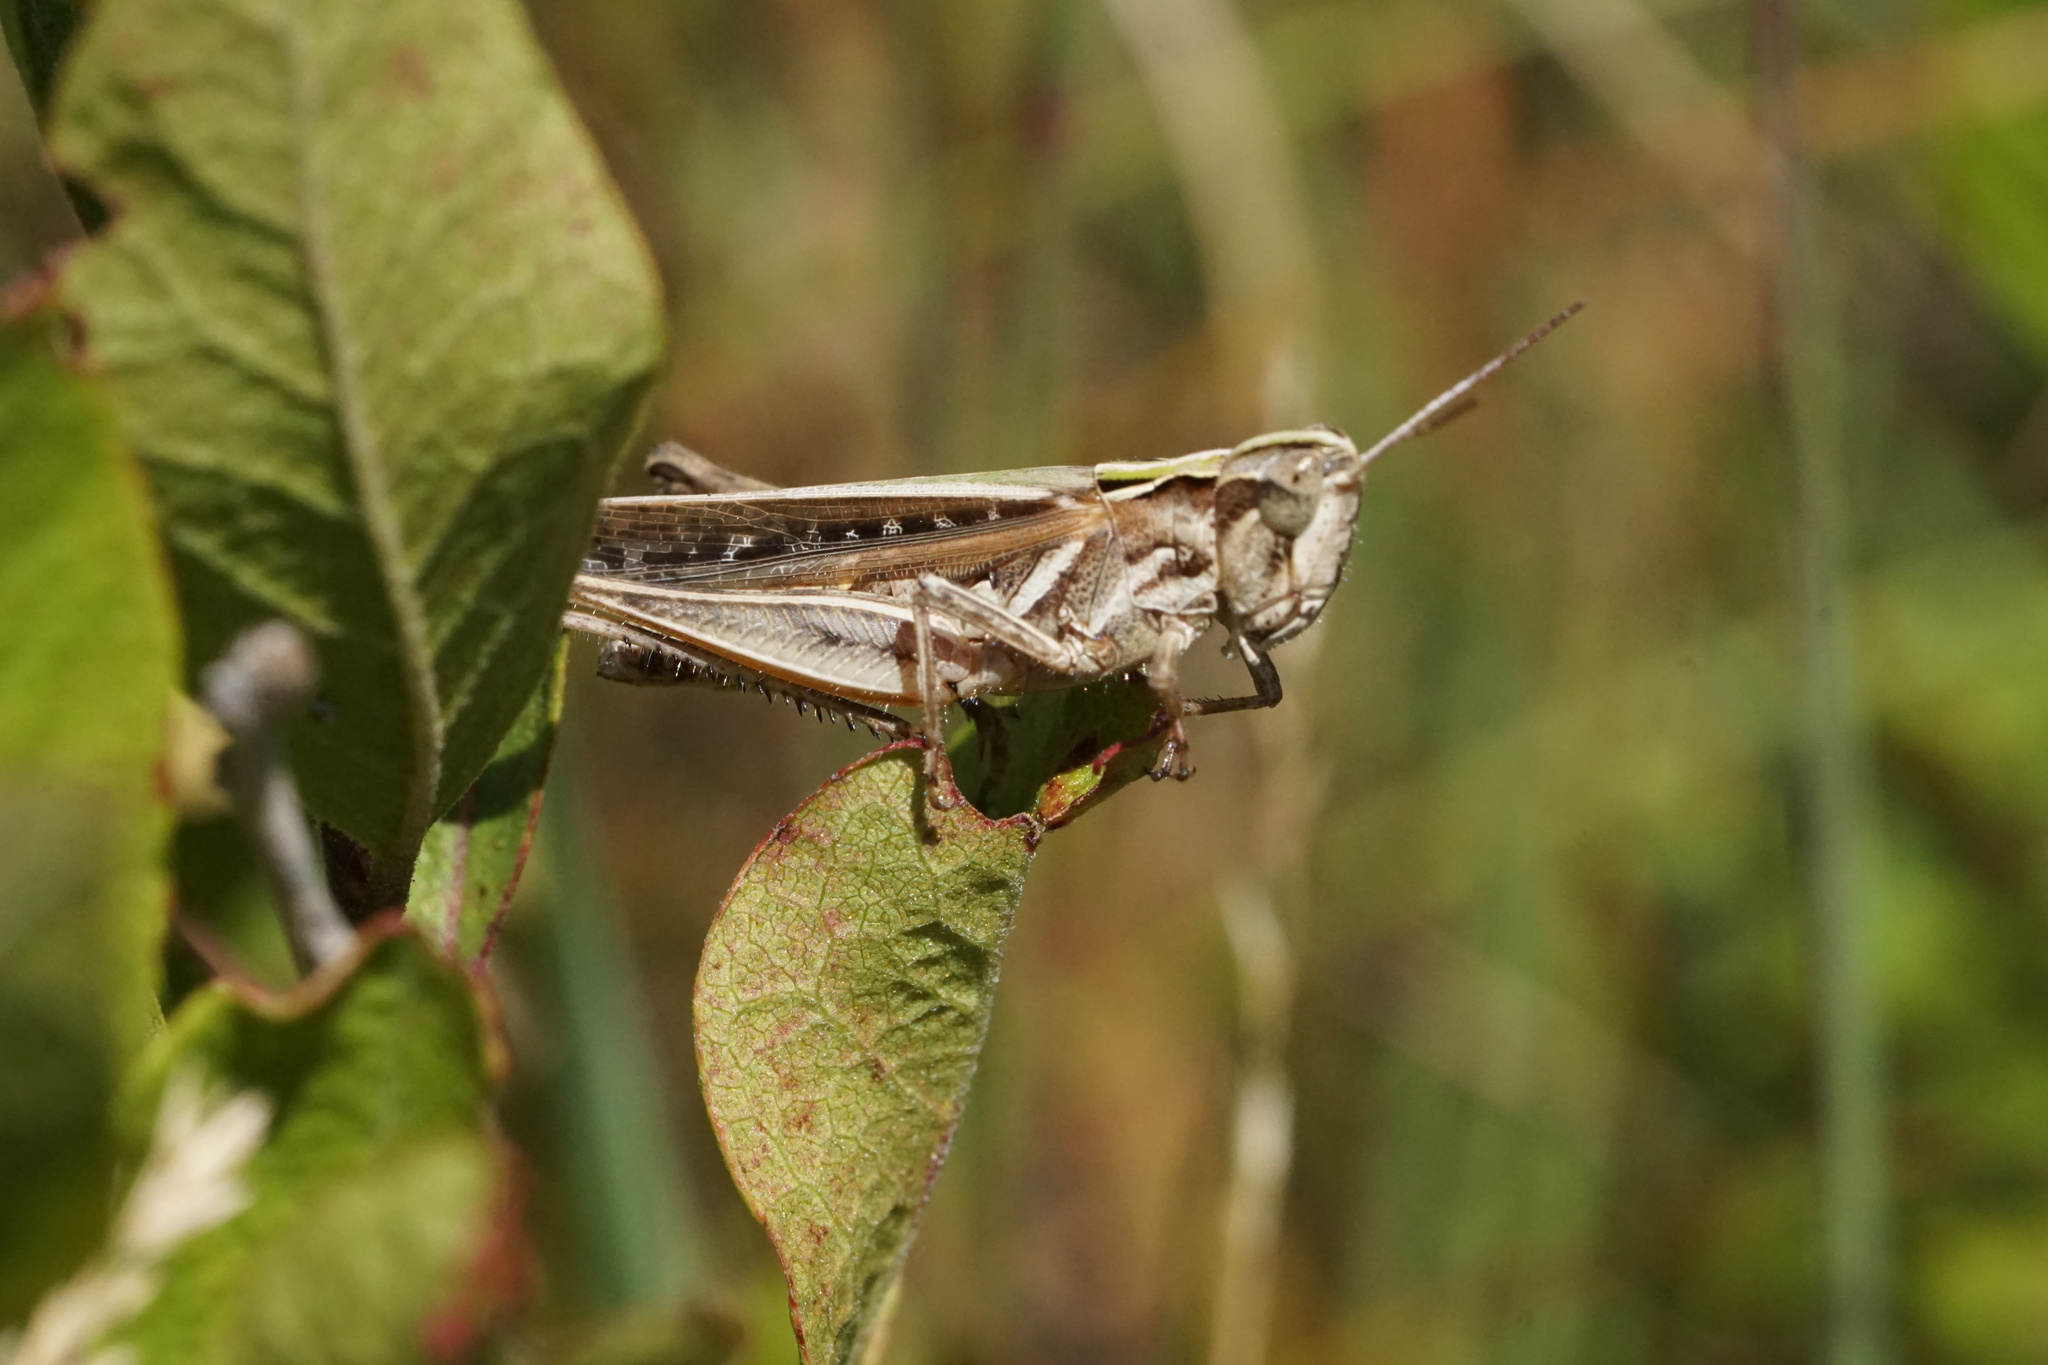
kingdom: Animalia
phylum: Arthropoda
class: Insecta
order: Orthoptera
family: Acrididae
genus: Orphulella
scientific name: Orphulella pelidna
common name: Spotted-wing grasshopper
